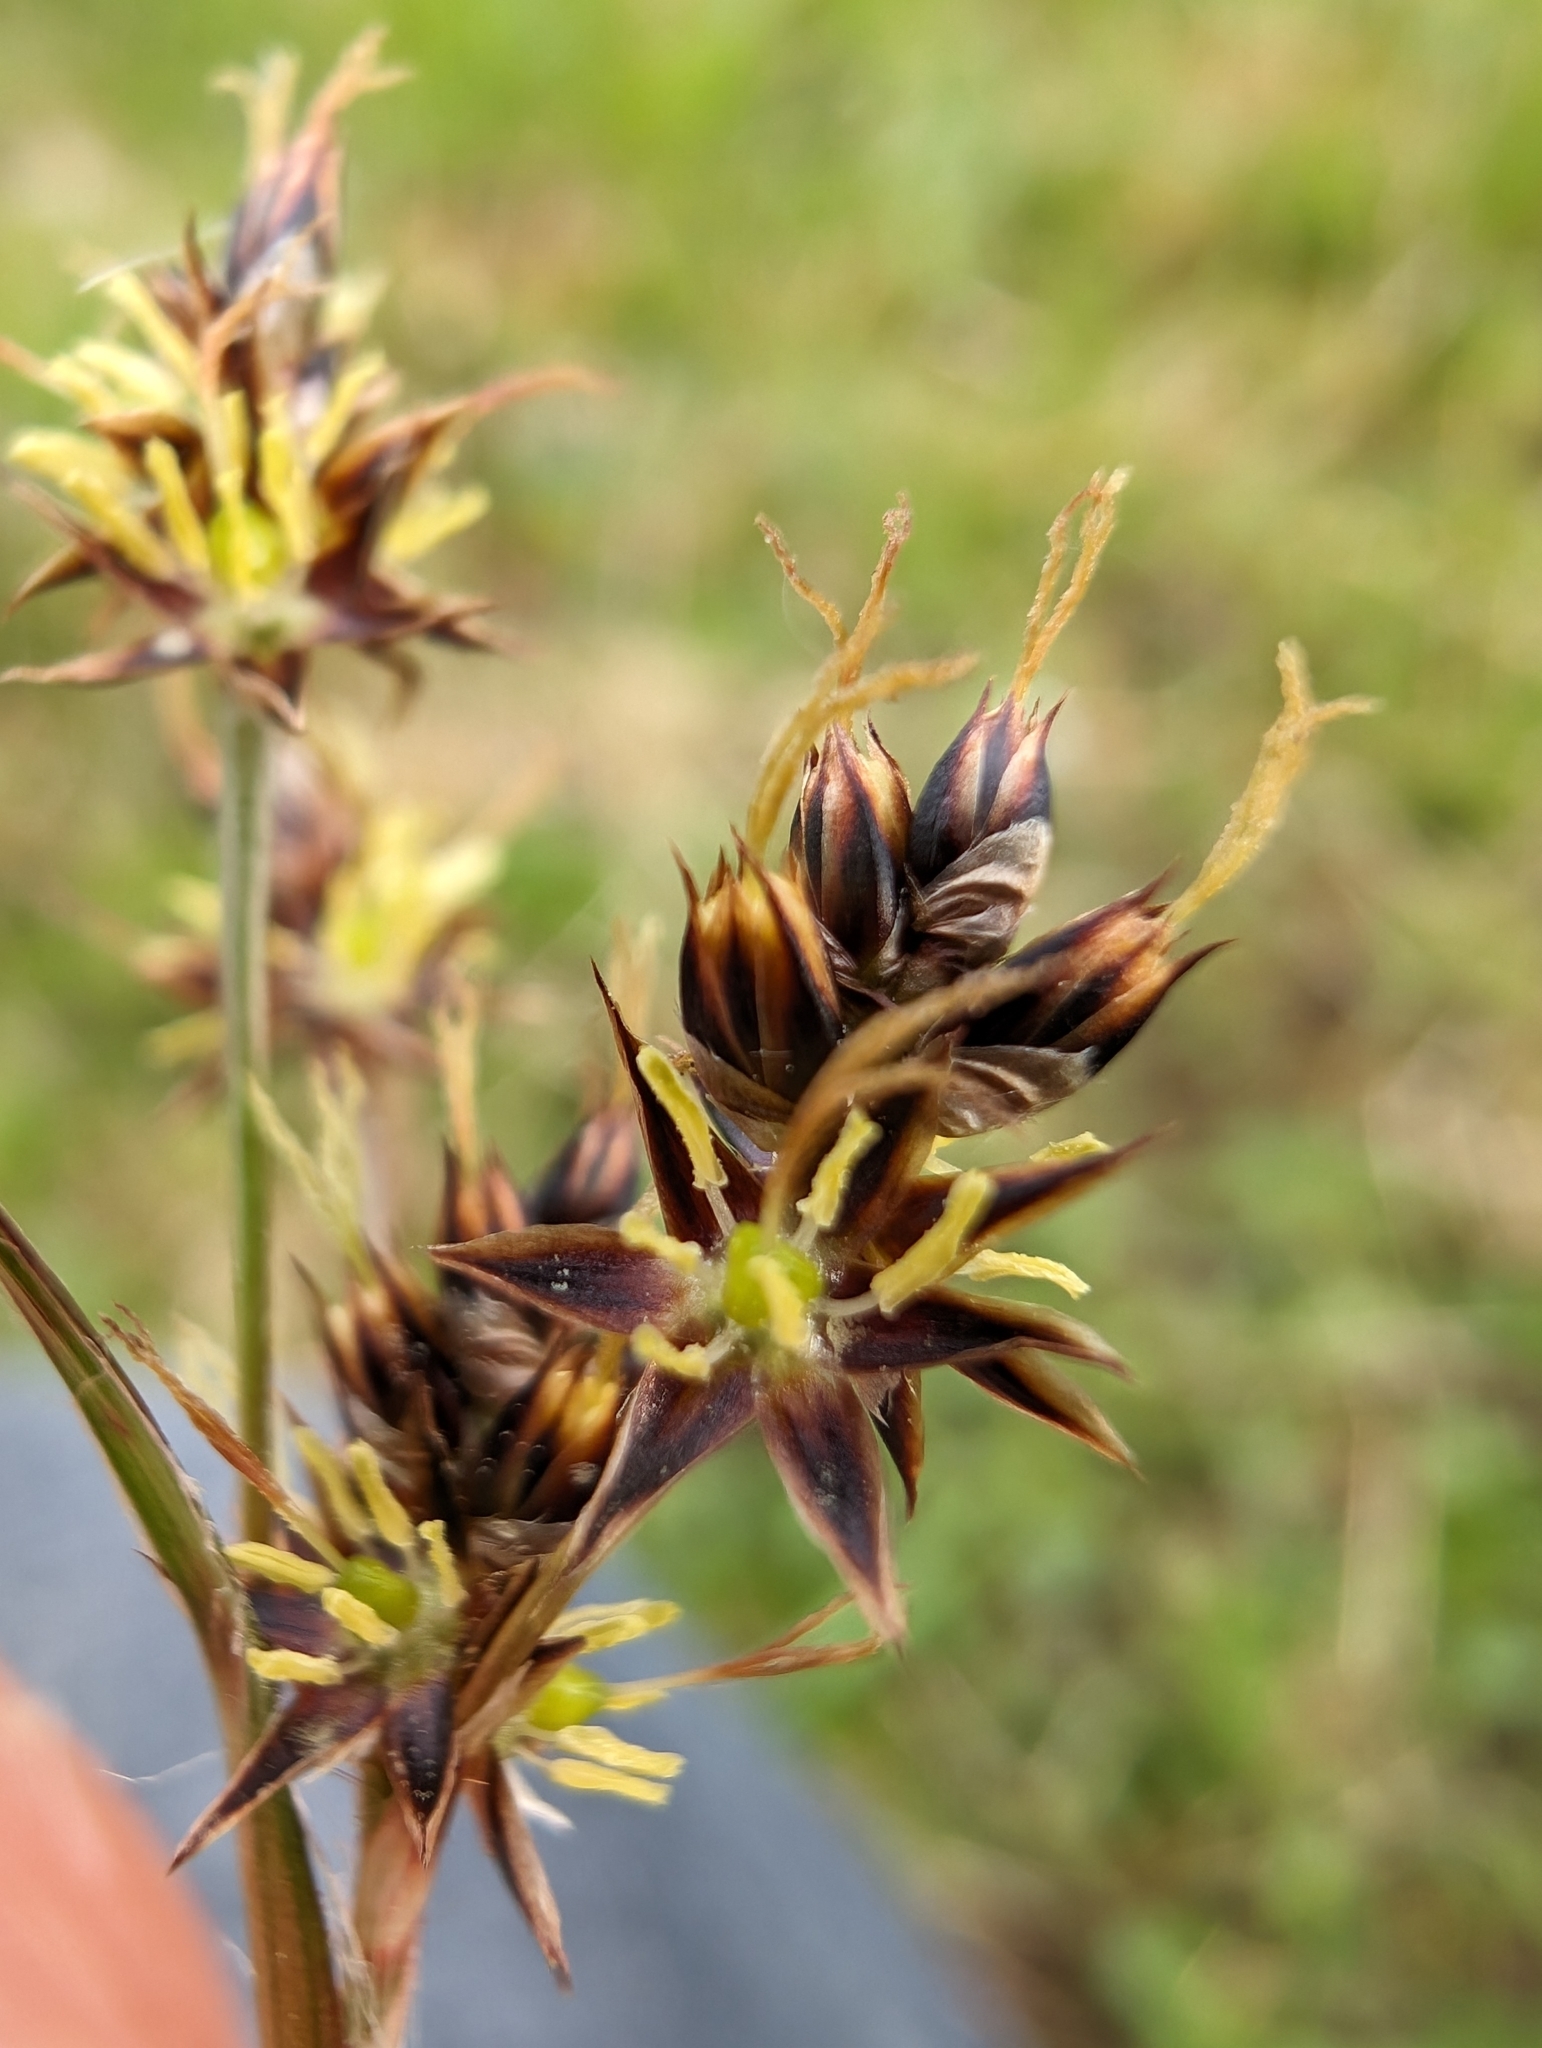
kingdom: Plantae
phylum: Tracheophyta
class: Liliopsida
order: Poales
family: Juncaceae
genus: Luzula
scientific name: Luzula campestris
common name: Field wood-rush
